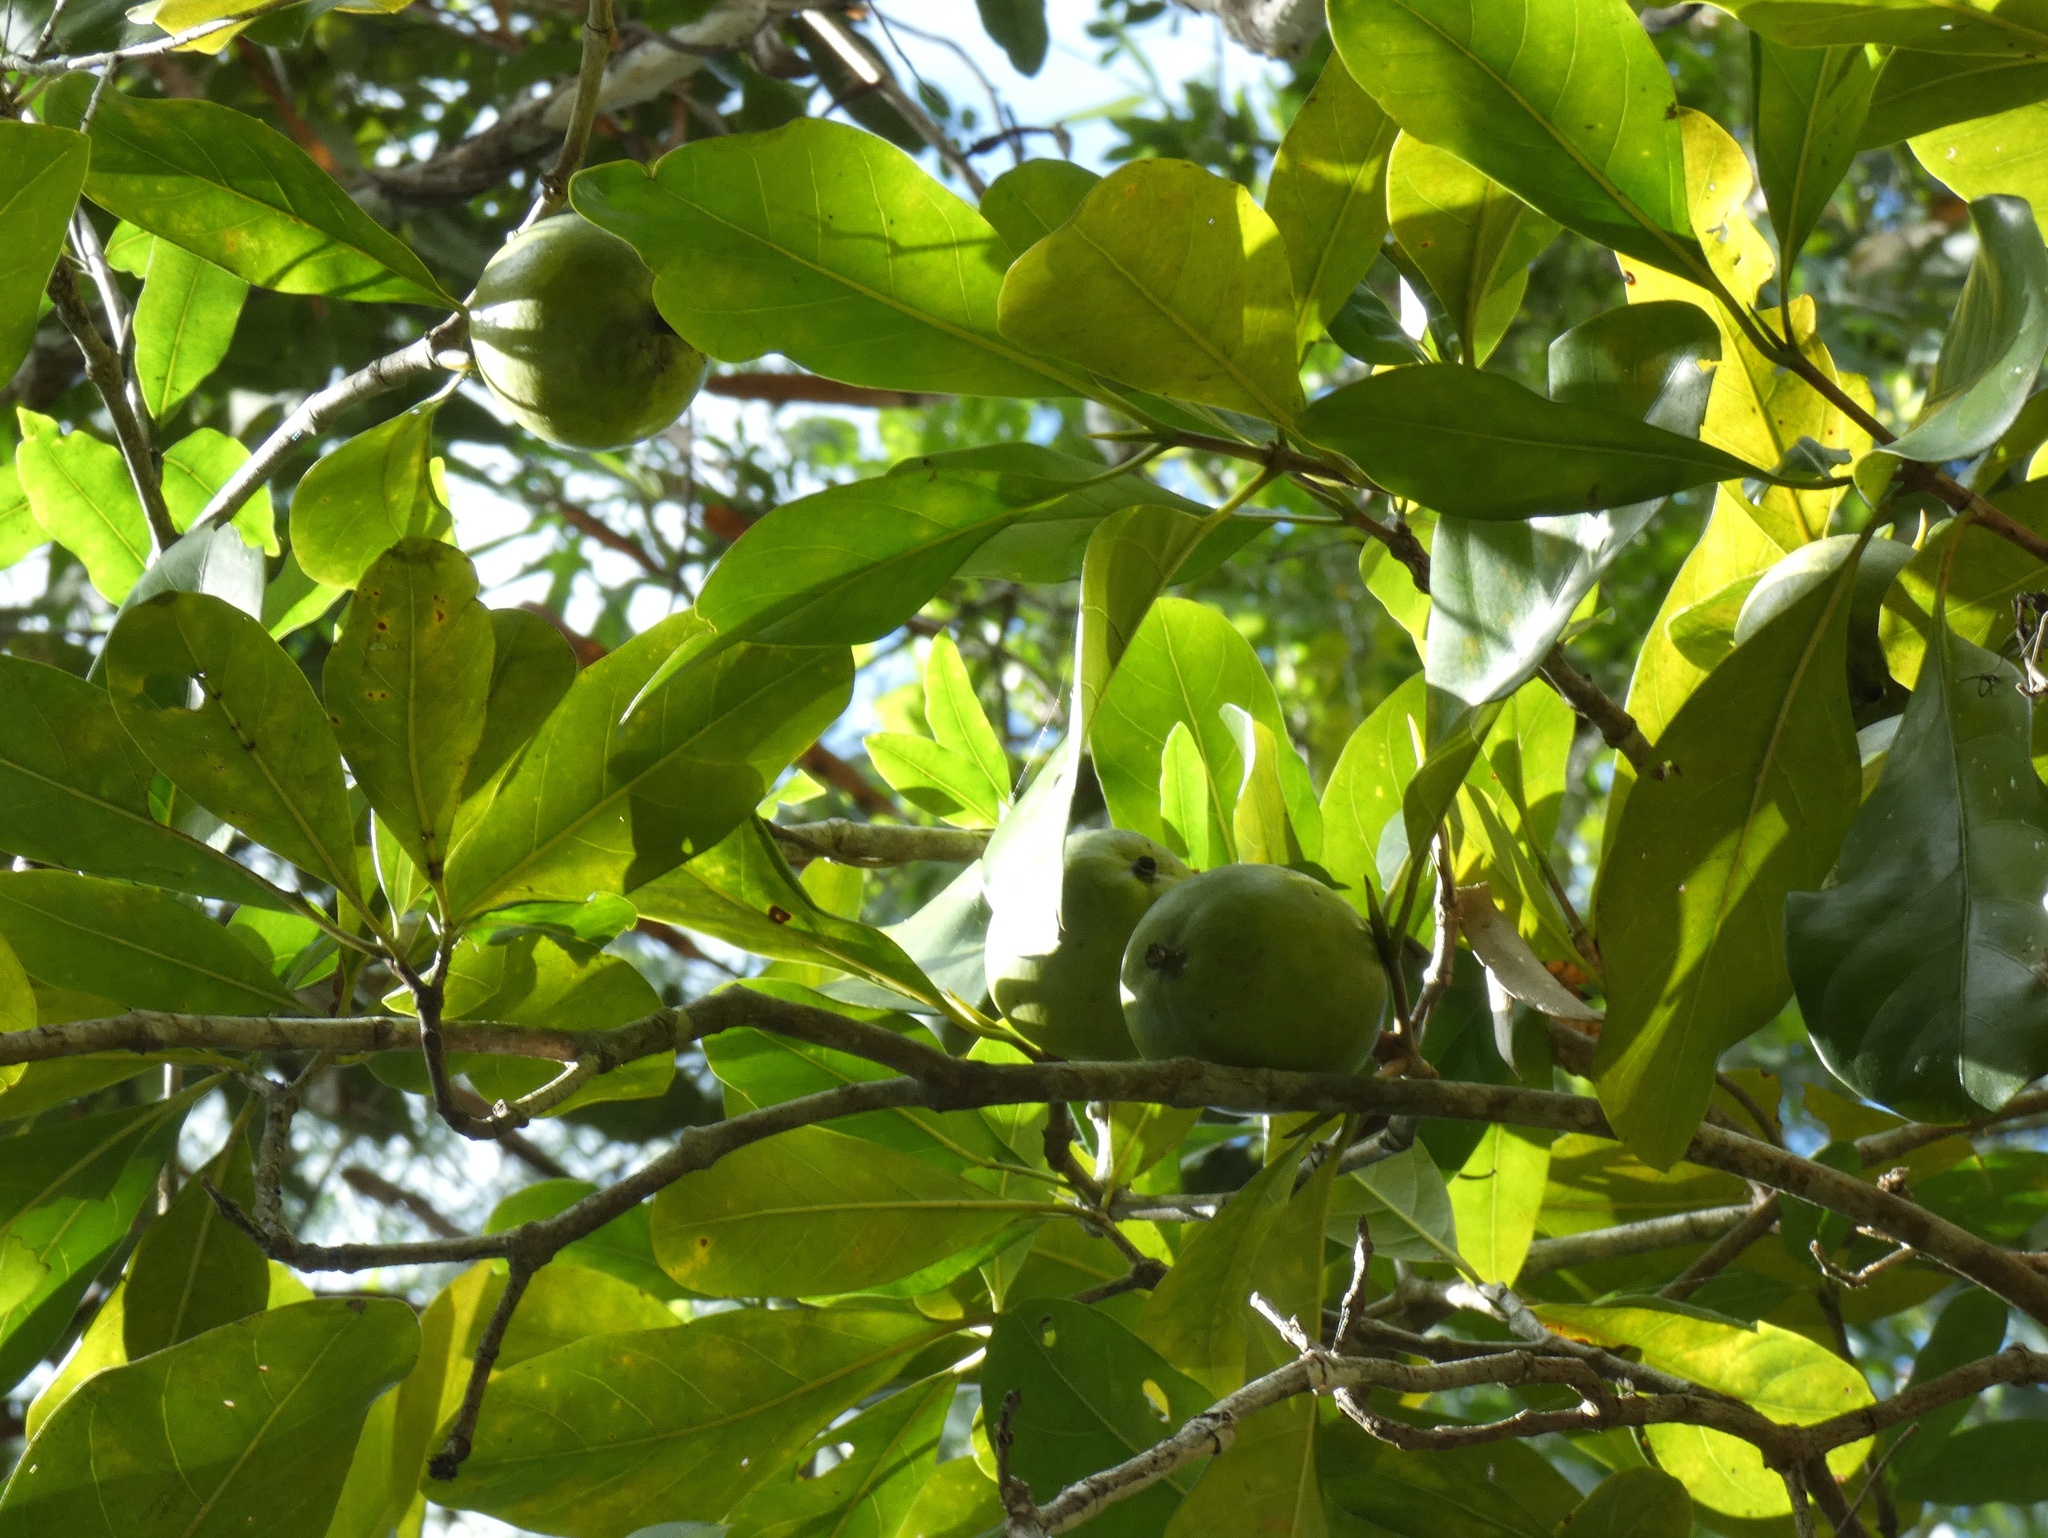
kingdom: Plantae
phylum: Tracheophyta
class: Magnoliopsida
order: Gentianales
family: Rubiaceae
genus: Atractocarpus
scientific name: Atractocarpus fitzalanii
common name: Randia
